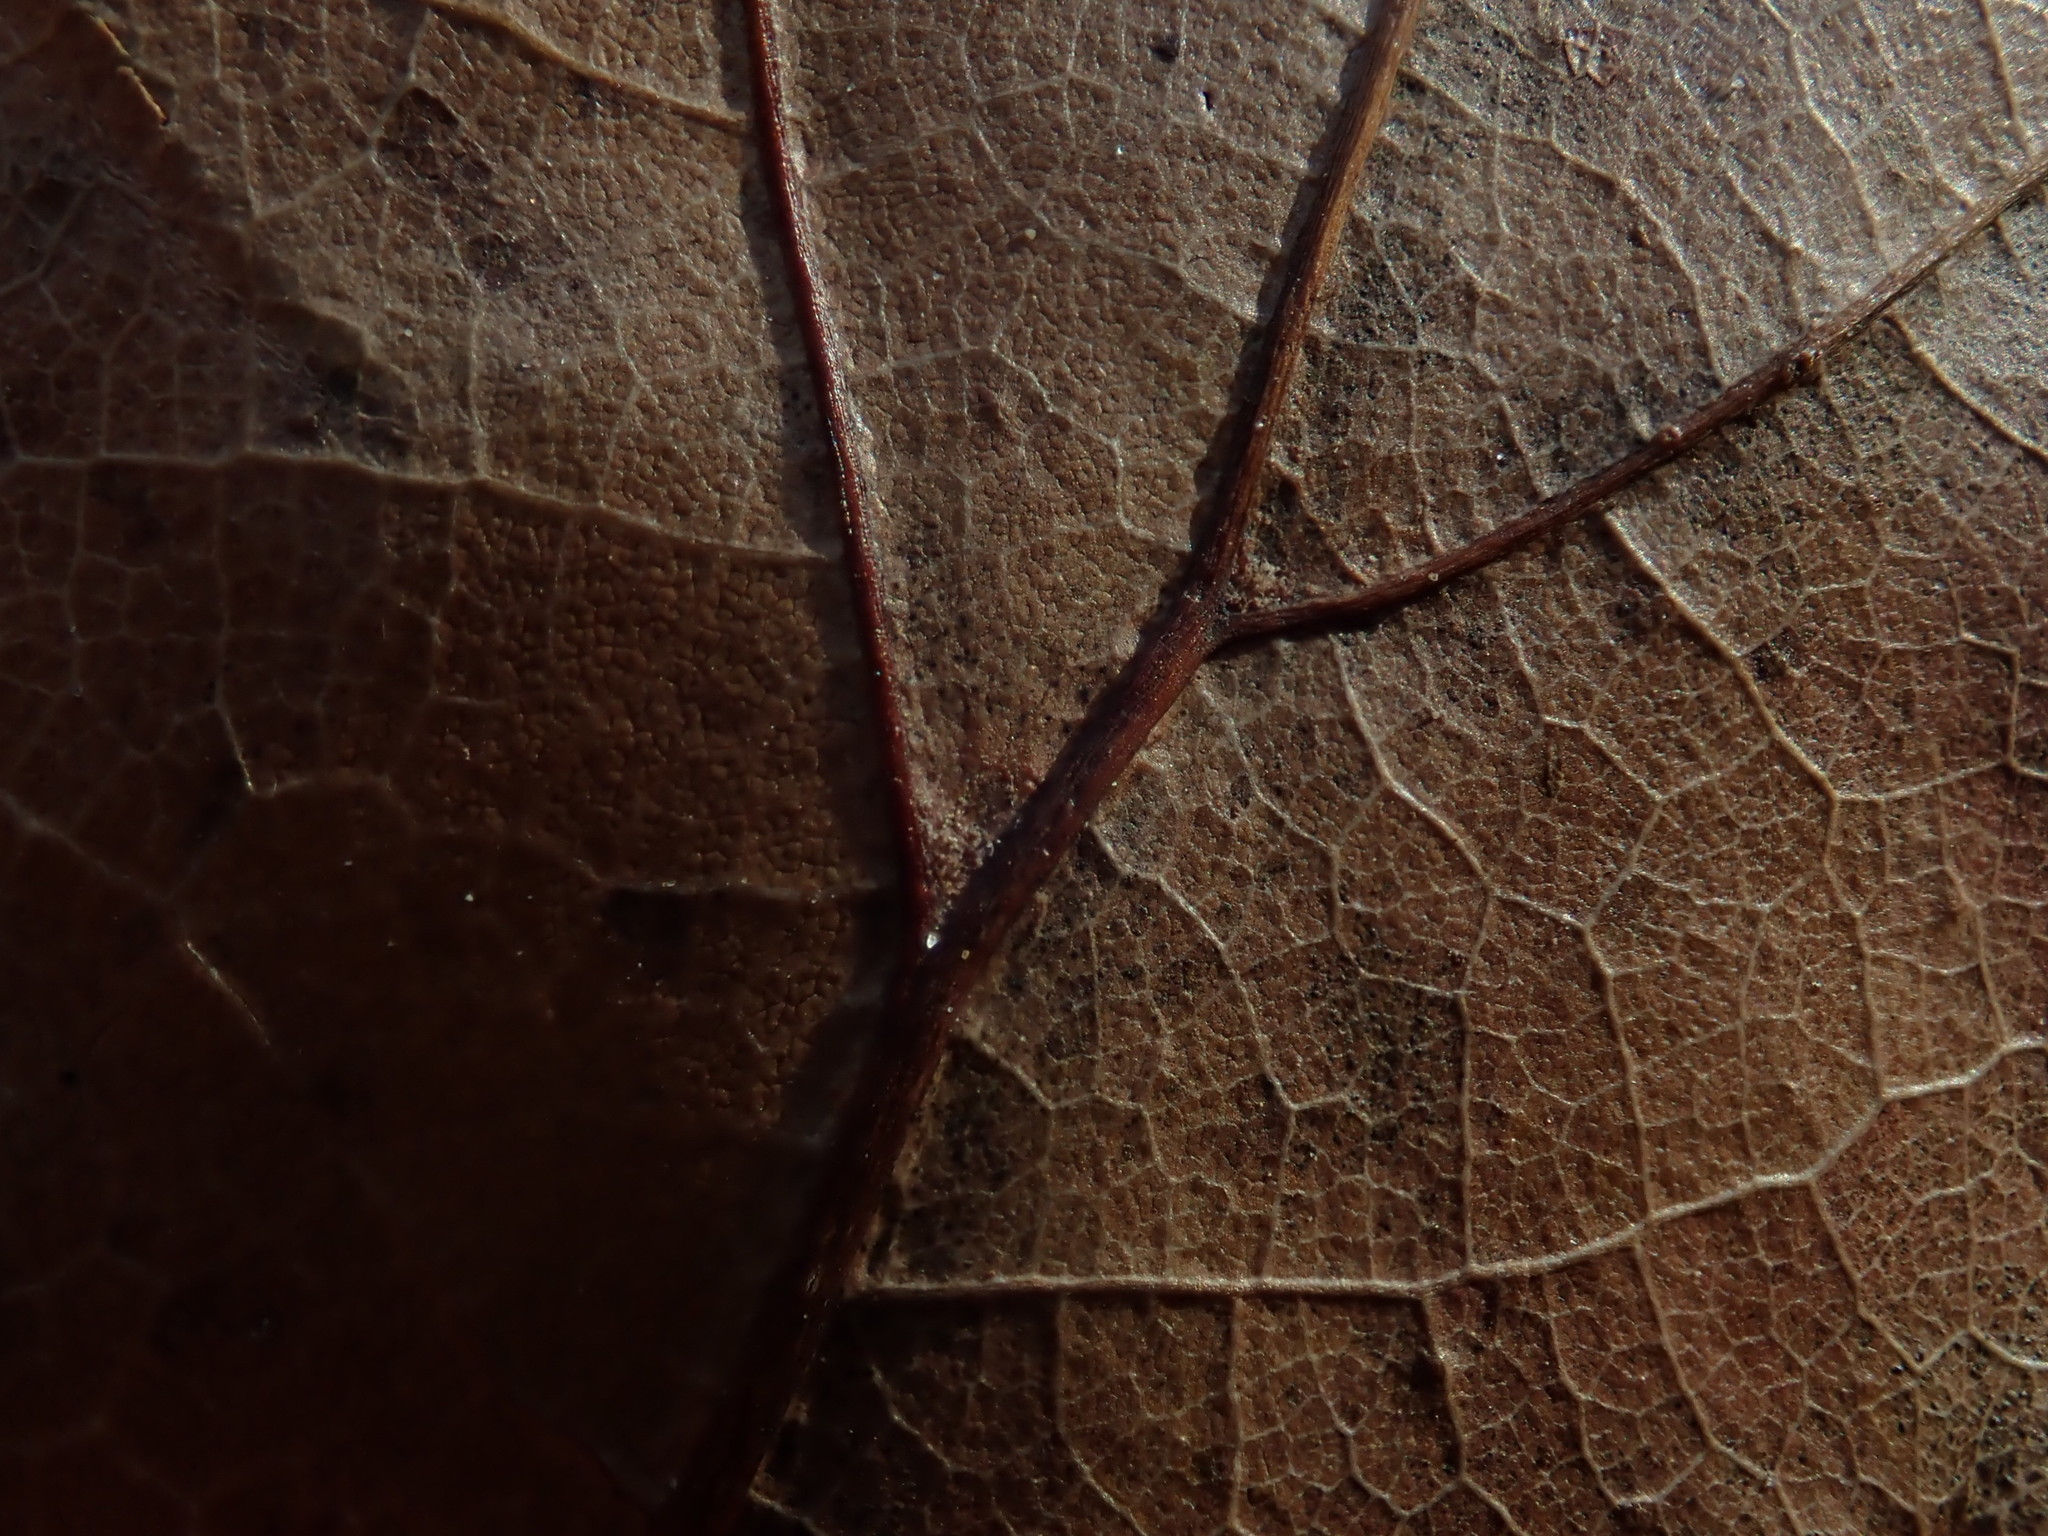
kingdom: Plantae
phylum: Tracheophyta
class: Magnoliopsida
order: Fagales
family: Fagaceae
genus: Quercus
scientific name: Quercus rubra
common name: Red oak
